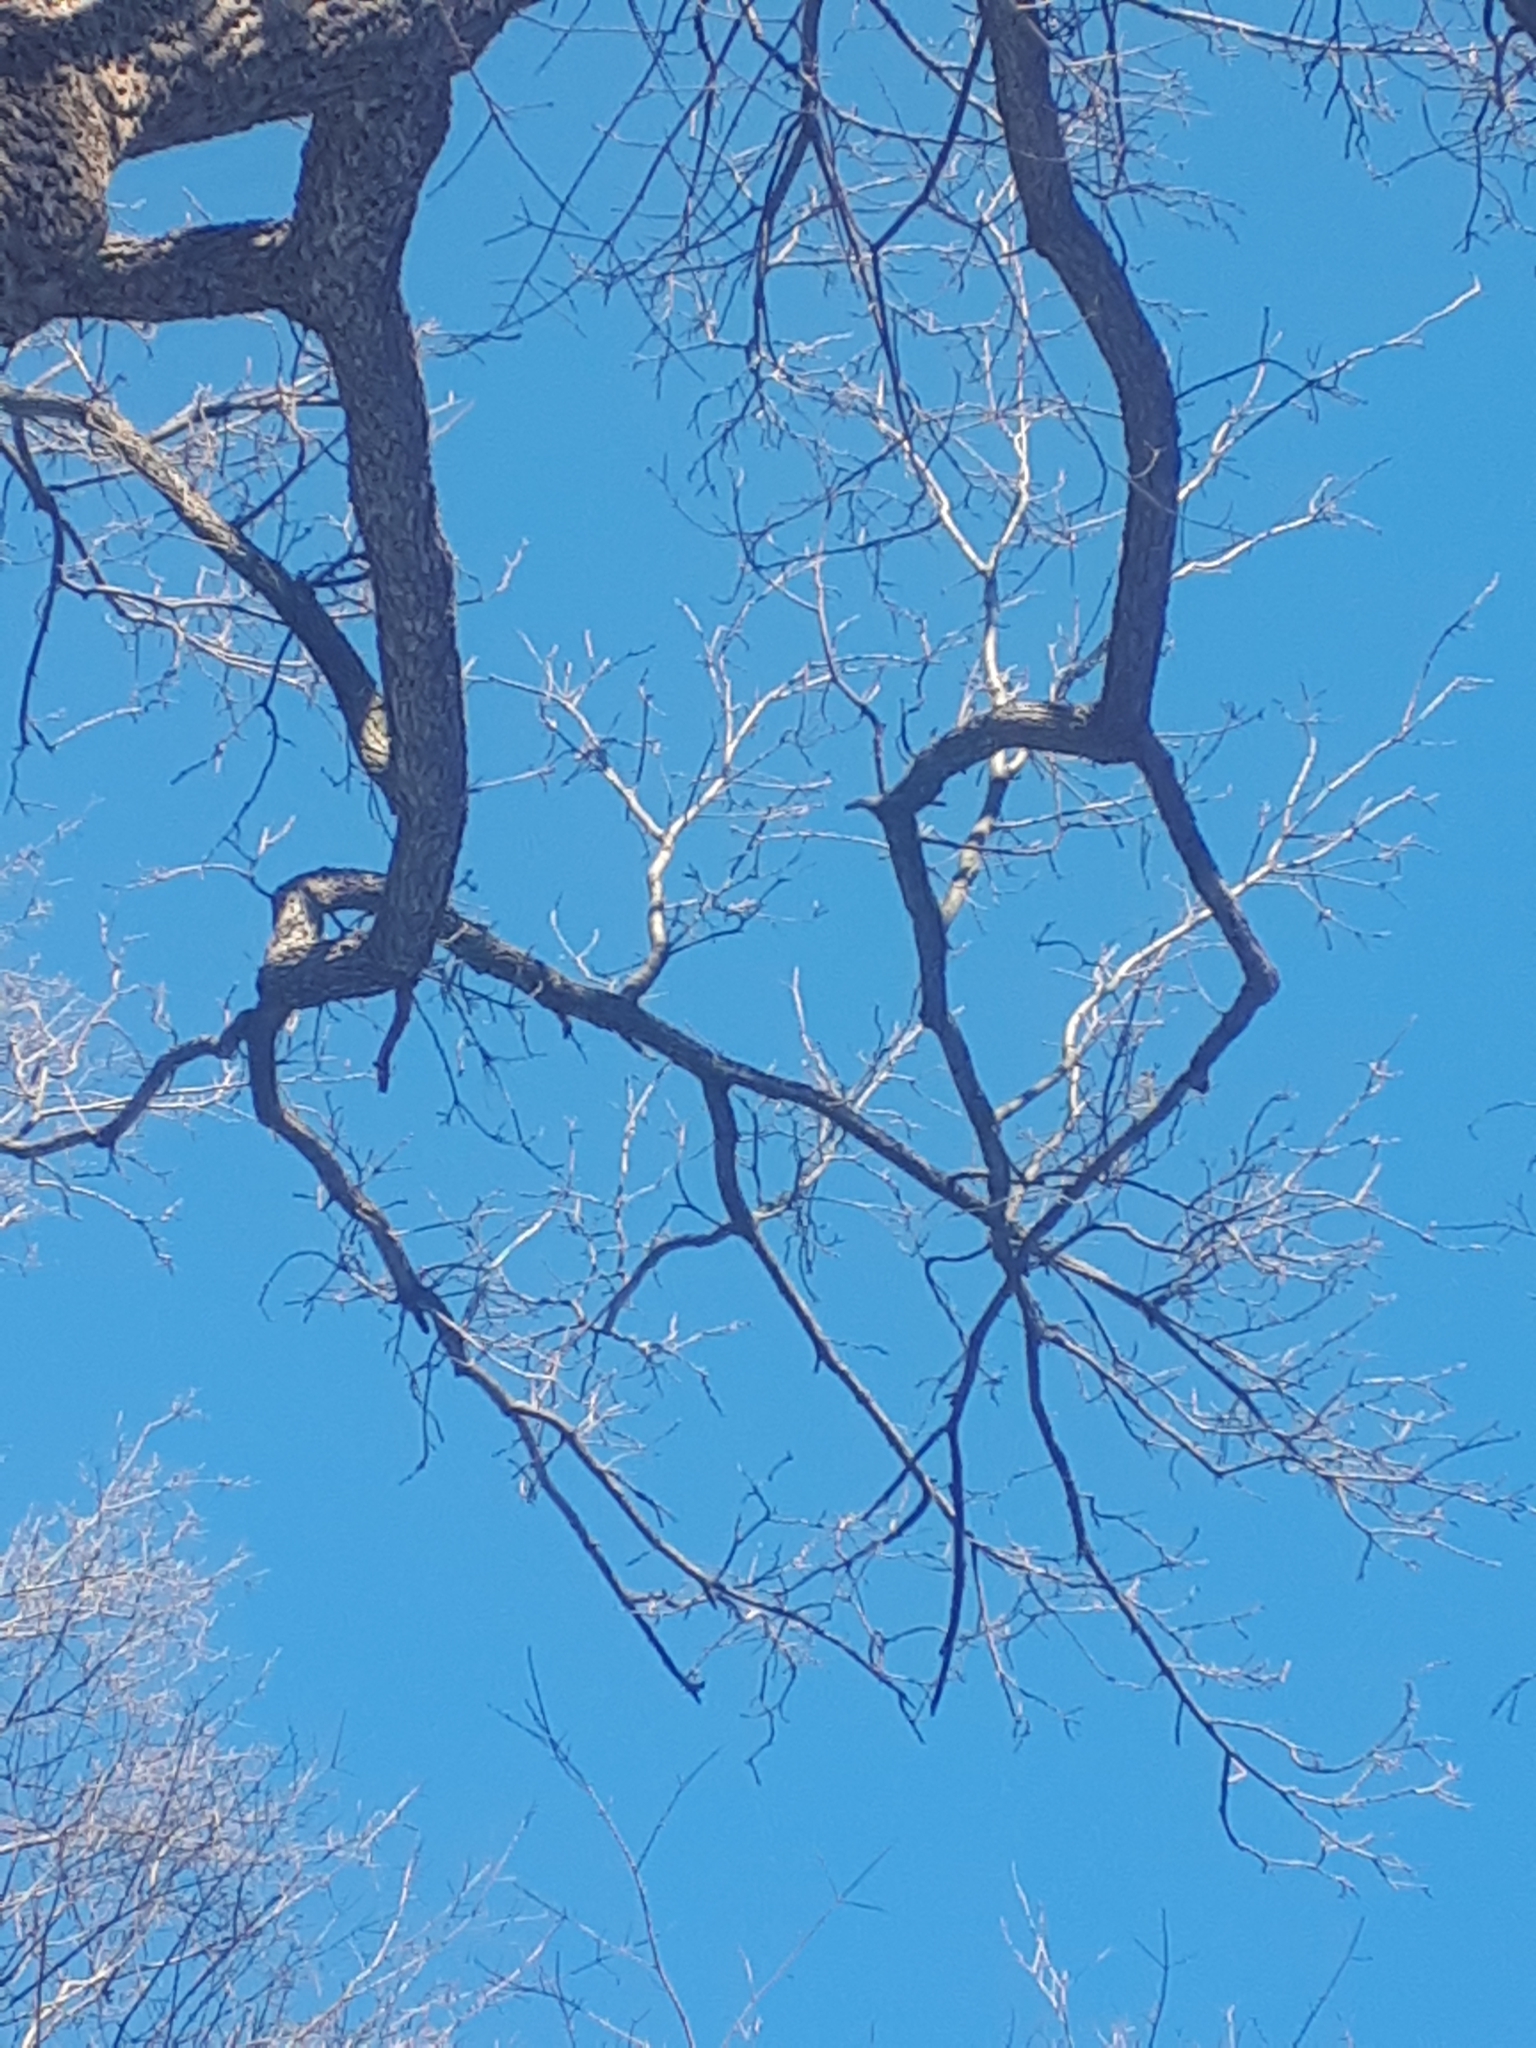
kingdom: Plantae
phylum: Tracheophyta
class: Magnoliopsida
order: Fagales
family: Juglandaceae
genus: Juglans
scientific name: Juglans nigra
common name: Black walnut
